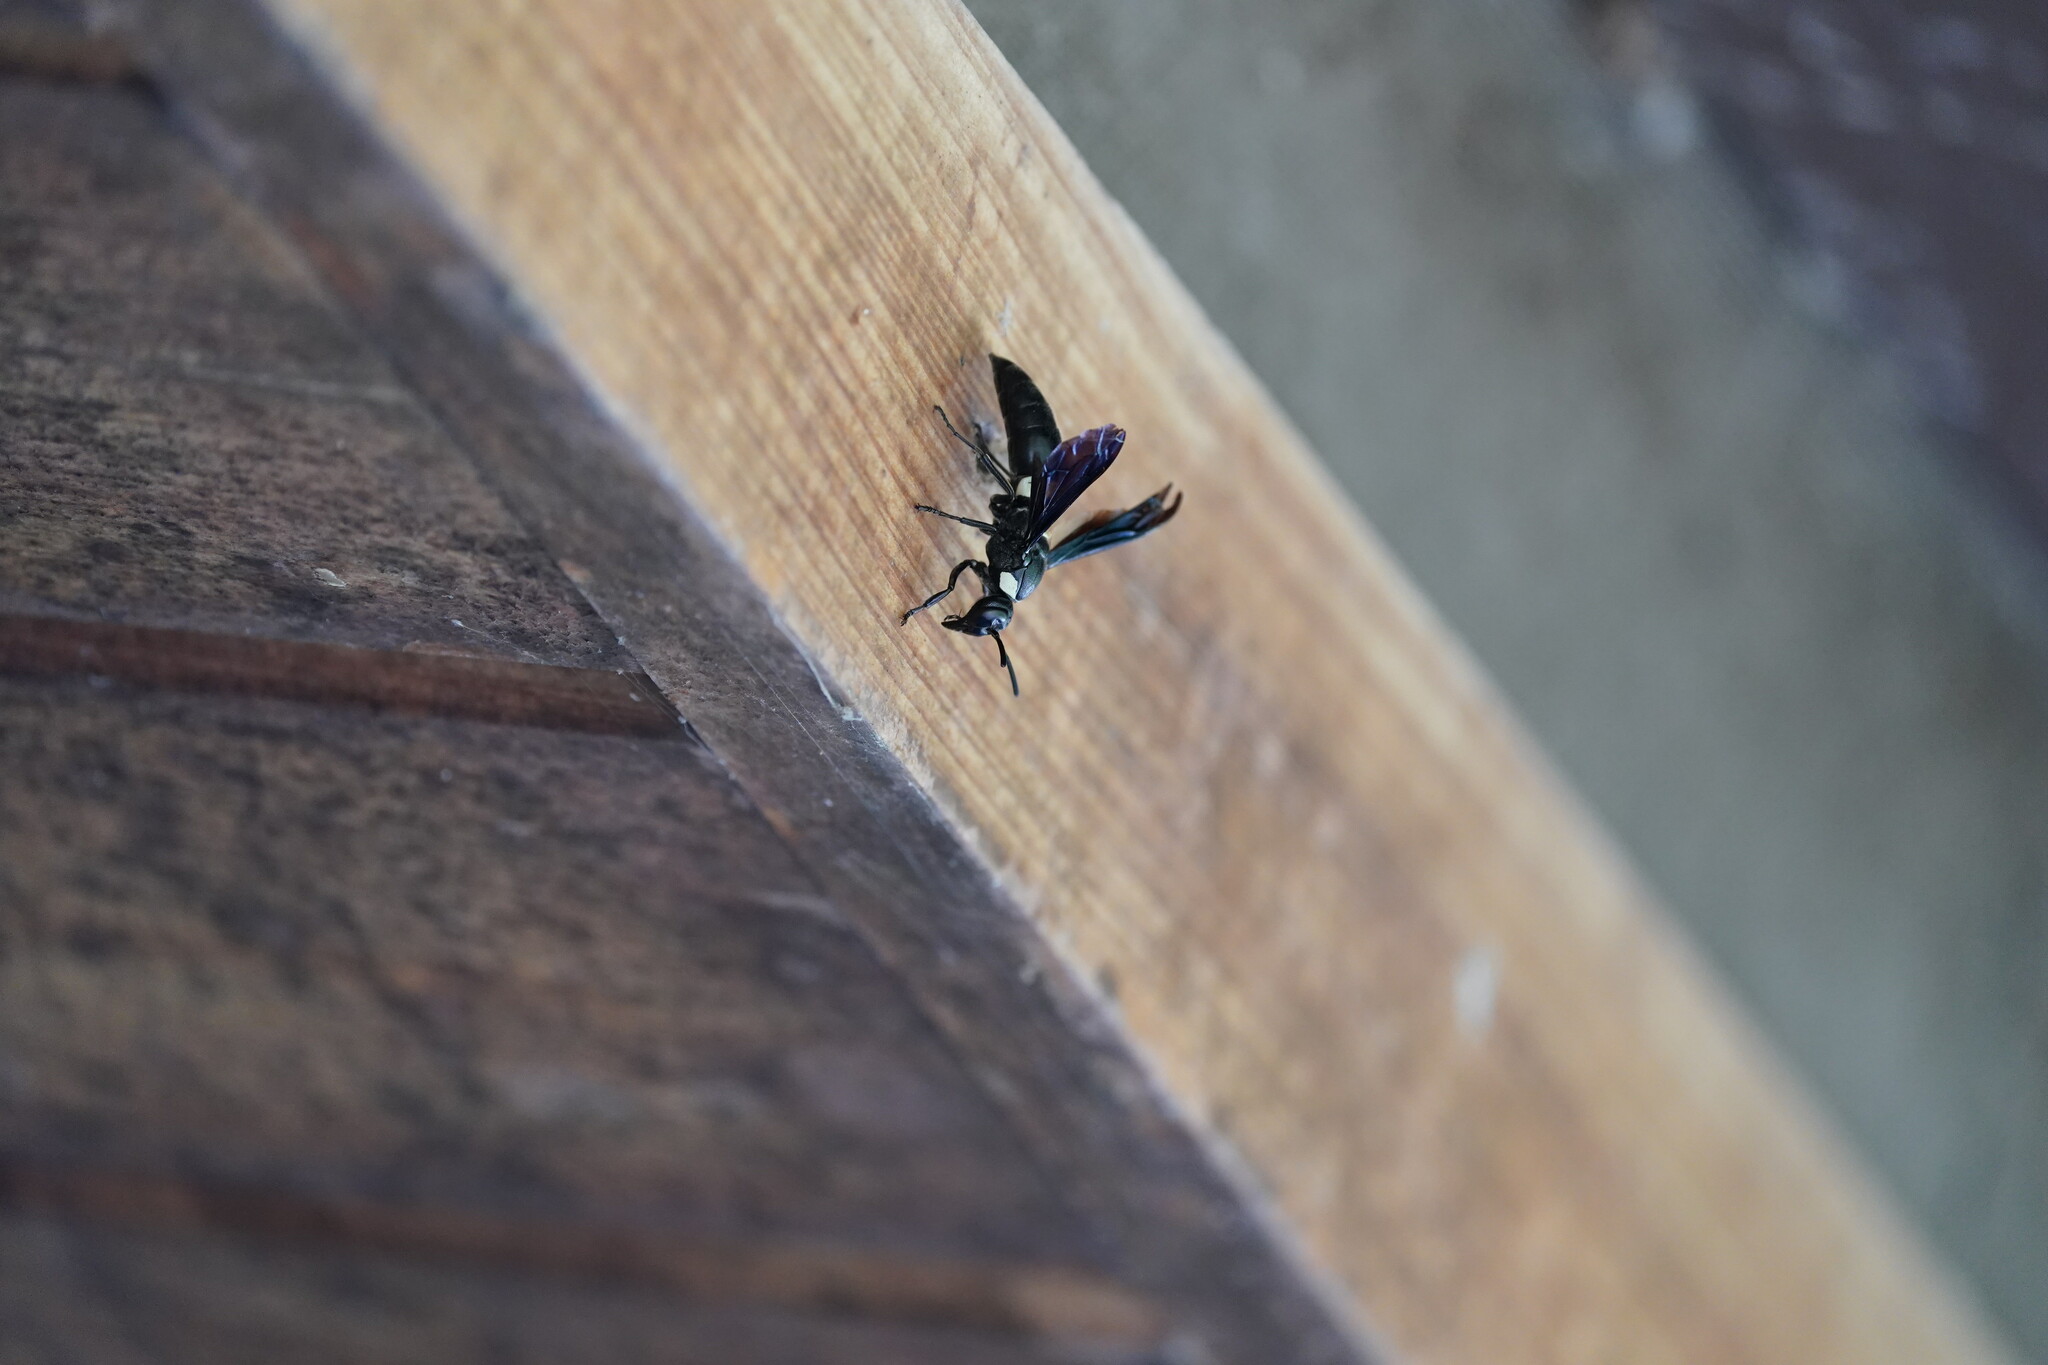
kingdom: Animalia
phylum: Arthropoda
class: Insecta
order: Hymenoptera
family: Eumenidae
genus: Monobia
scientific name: Monobia quadridens
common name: Four-toothed mason wasp
